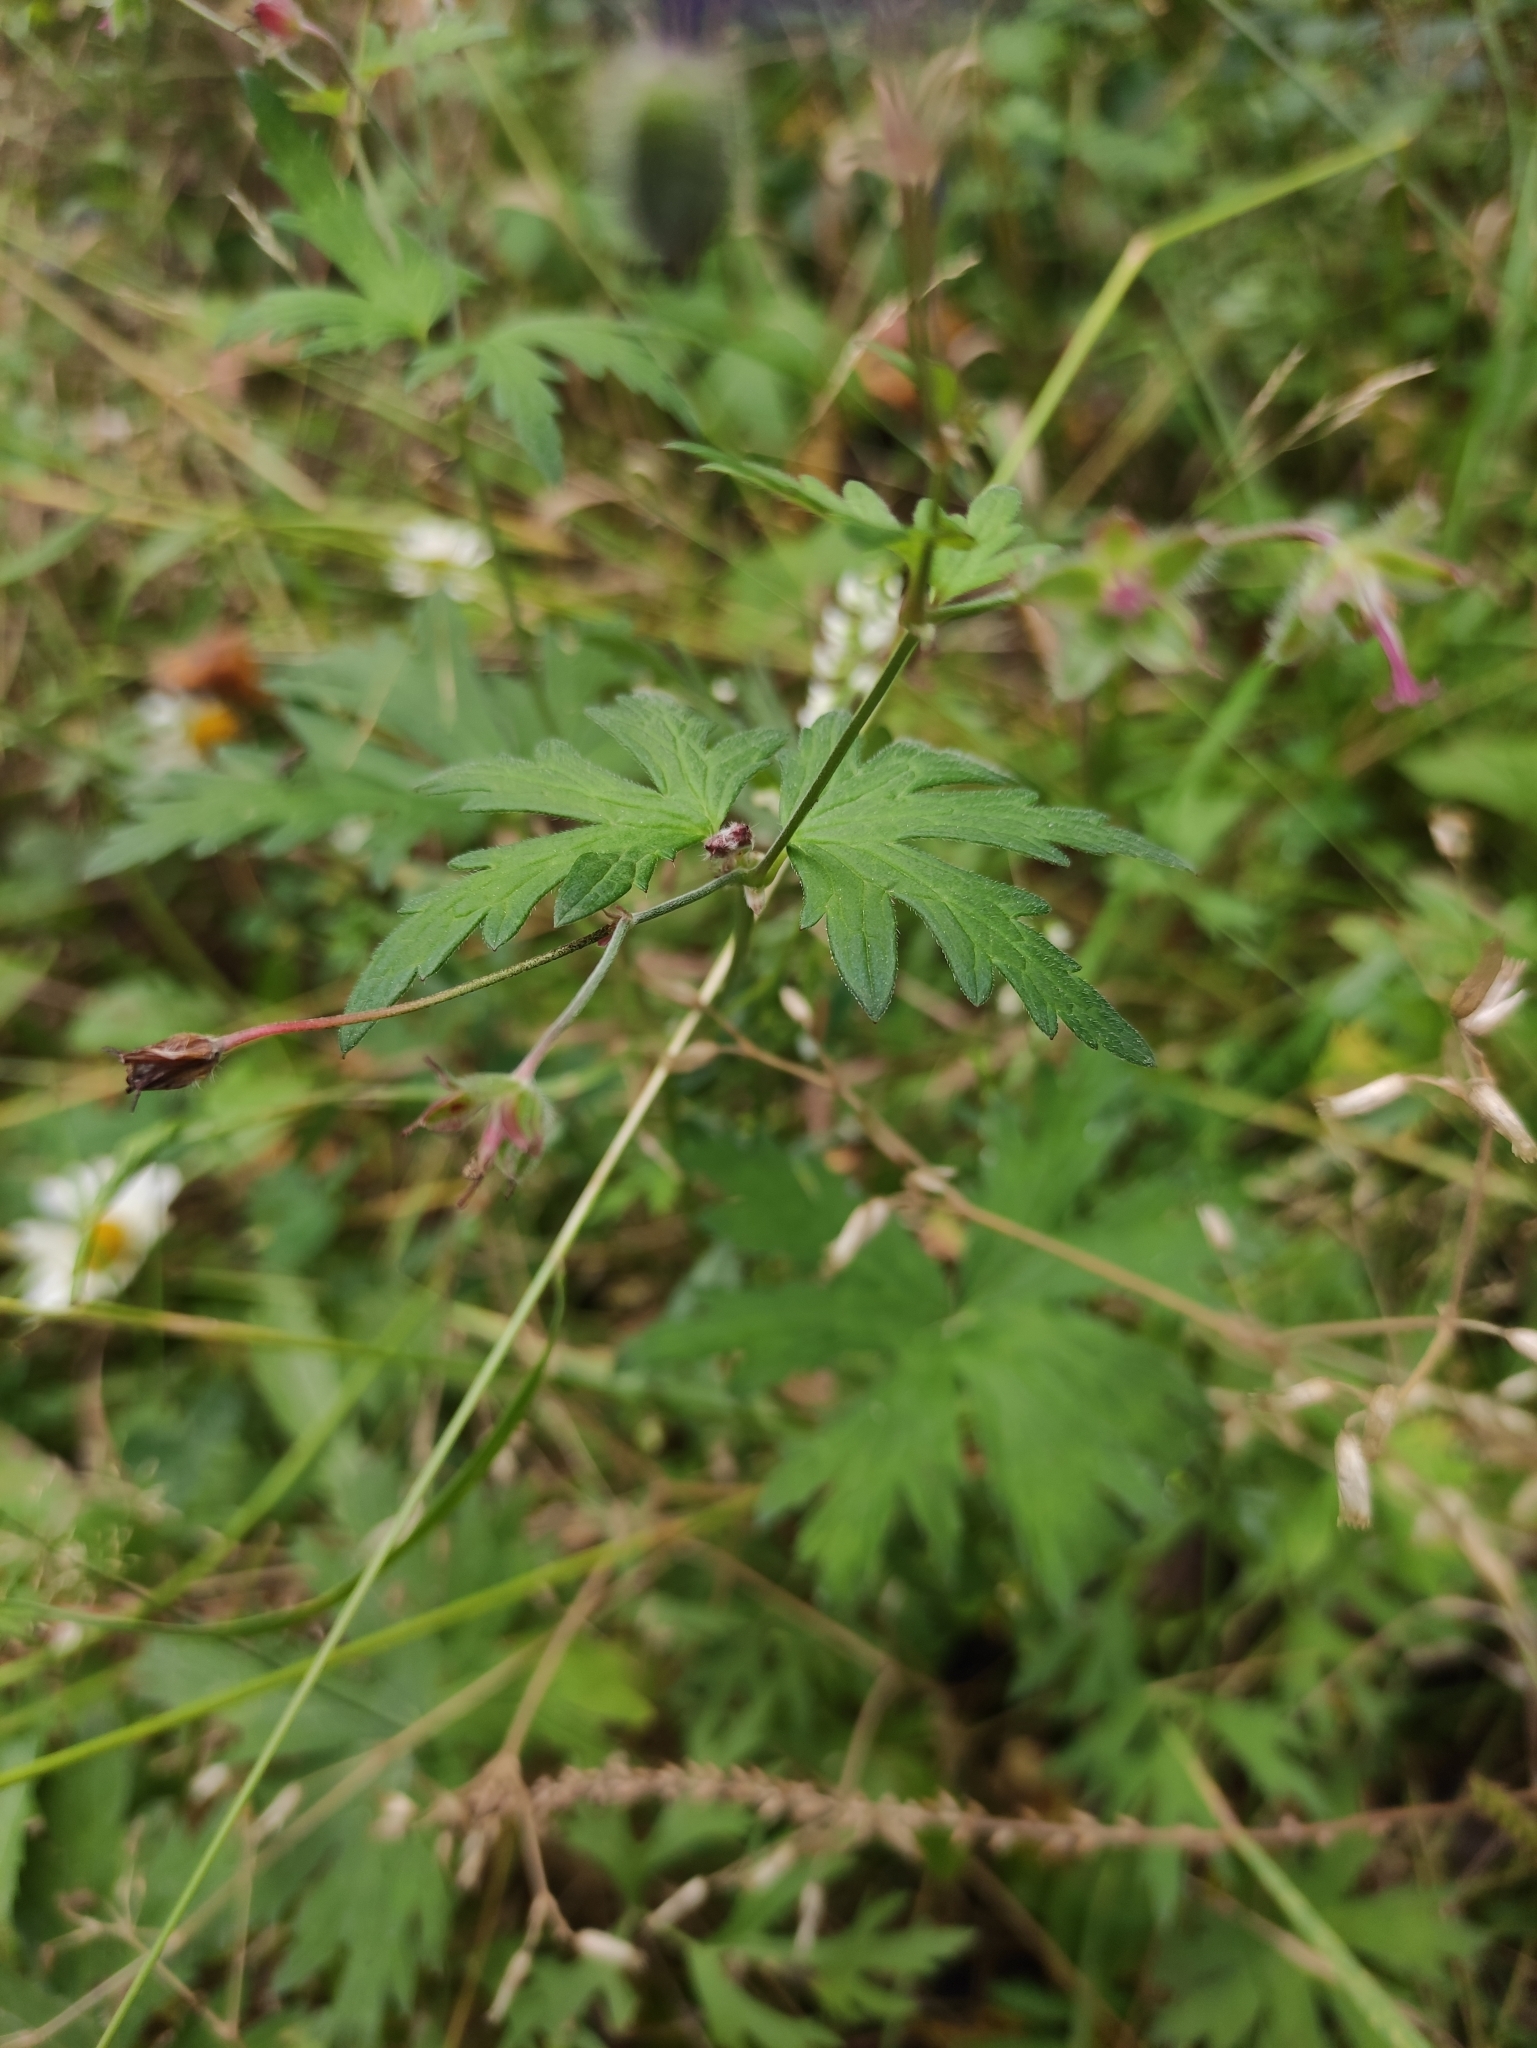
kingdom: Plantae
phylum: Tracheophyta
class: Magnoliopsida
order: Geraniales
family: Geraniaceae
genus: Geranium
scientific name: Geranium pseudosibiricum
